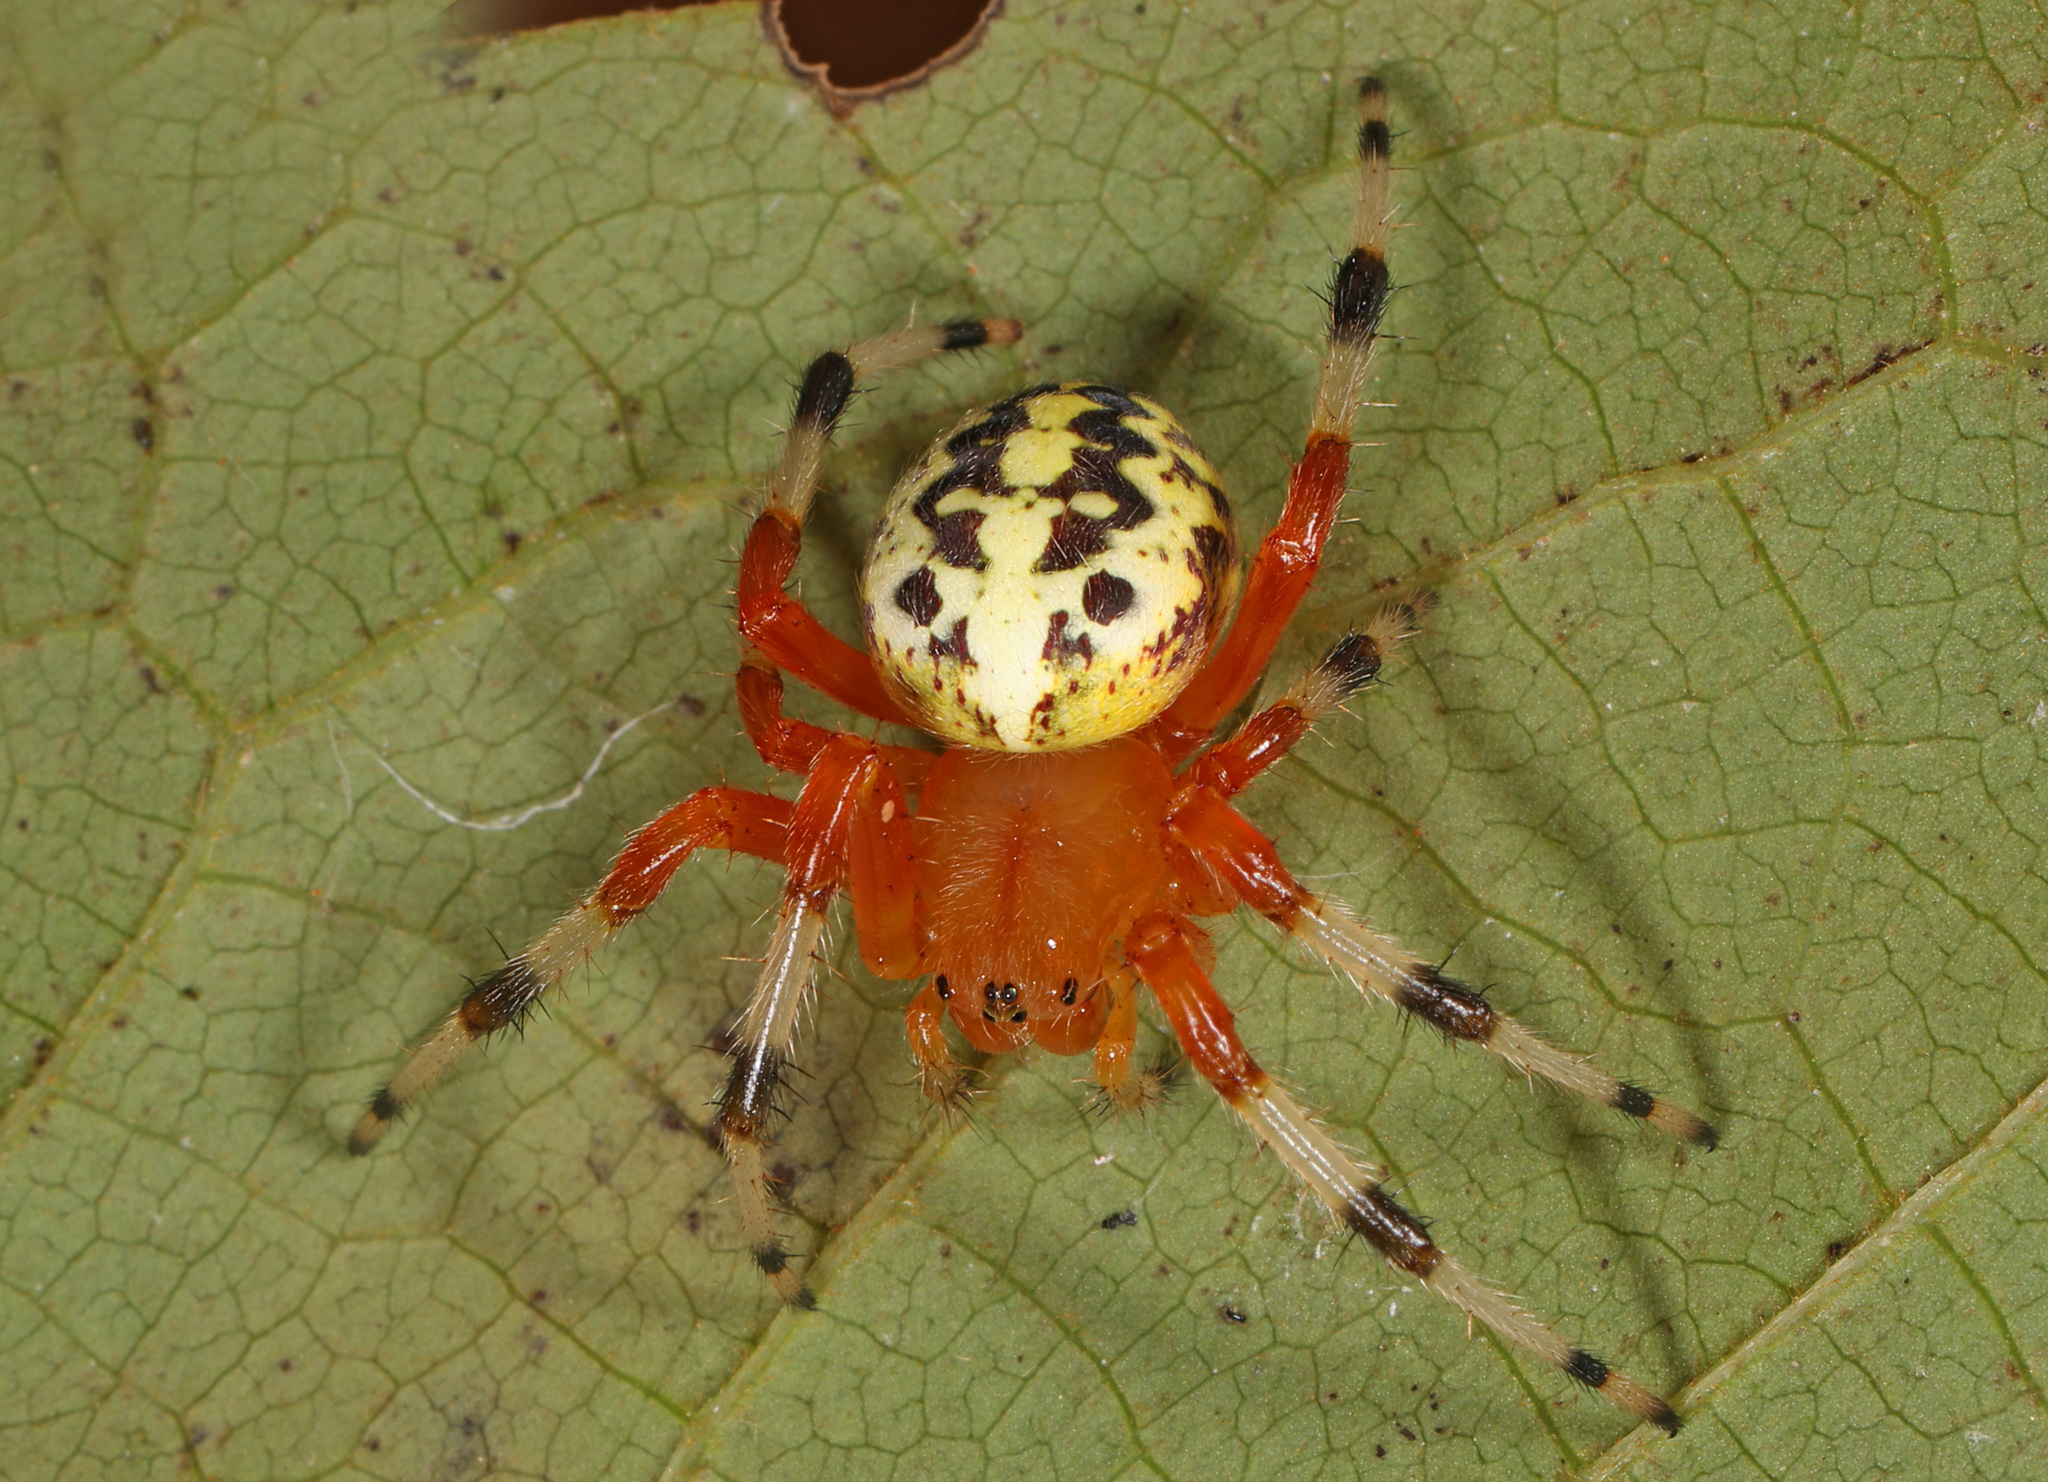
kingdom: Animalia
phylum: Arthropoda
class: Arachnida
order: Araneae
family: Araneidae
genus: Araneus
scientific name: Araneus marmoreus
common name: Marbled orbweaver
